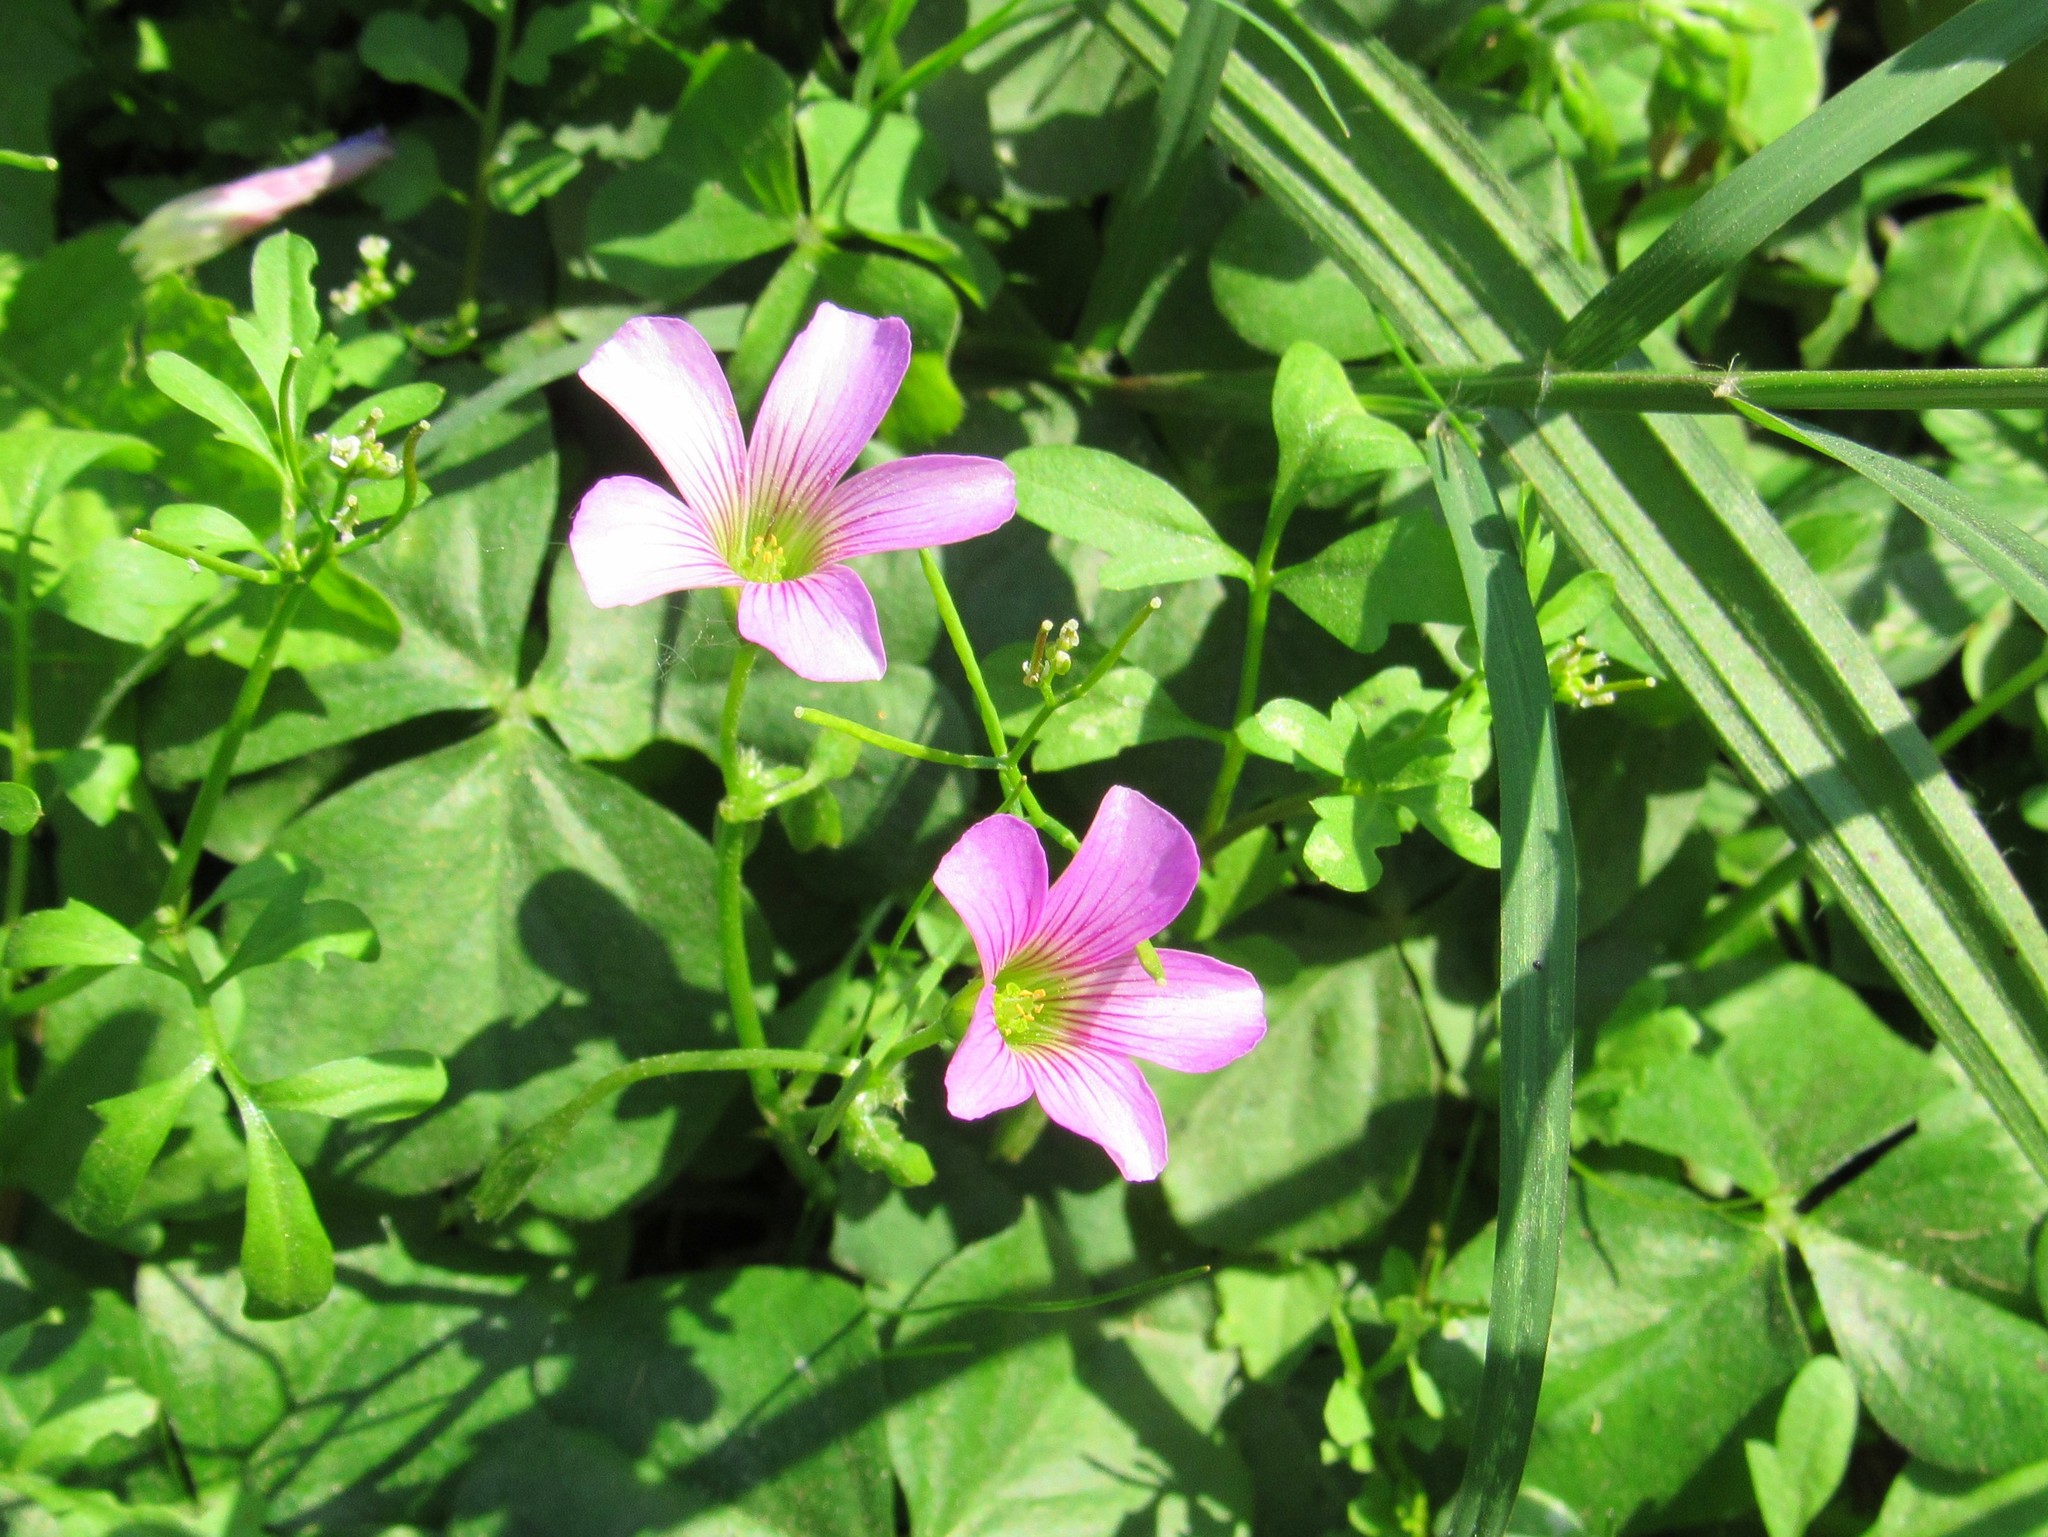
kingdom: Plantae
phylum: Tracheophyta
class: Magnoliopsida
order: Oxalidales
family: Oxalidaceae
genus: Oxalis
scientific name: Oxalis debilis
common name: Large-flowered pink-sorrel
